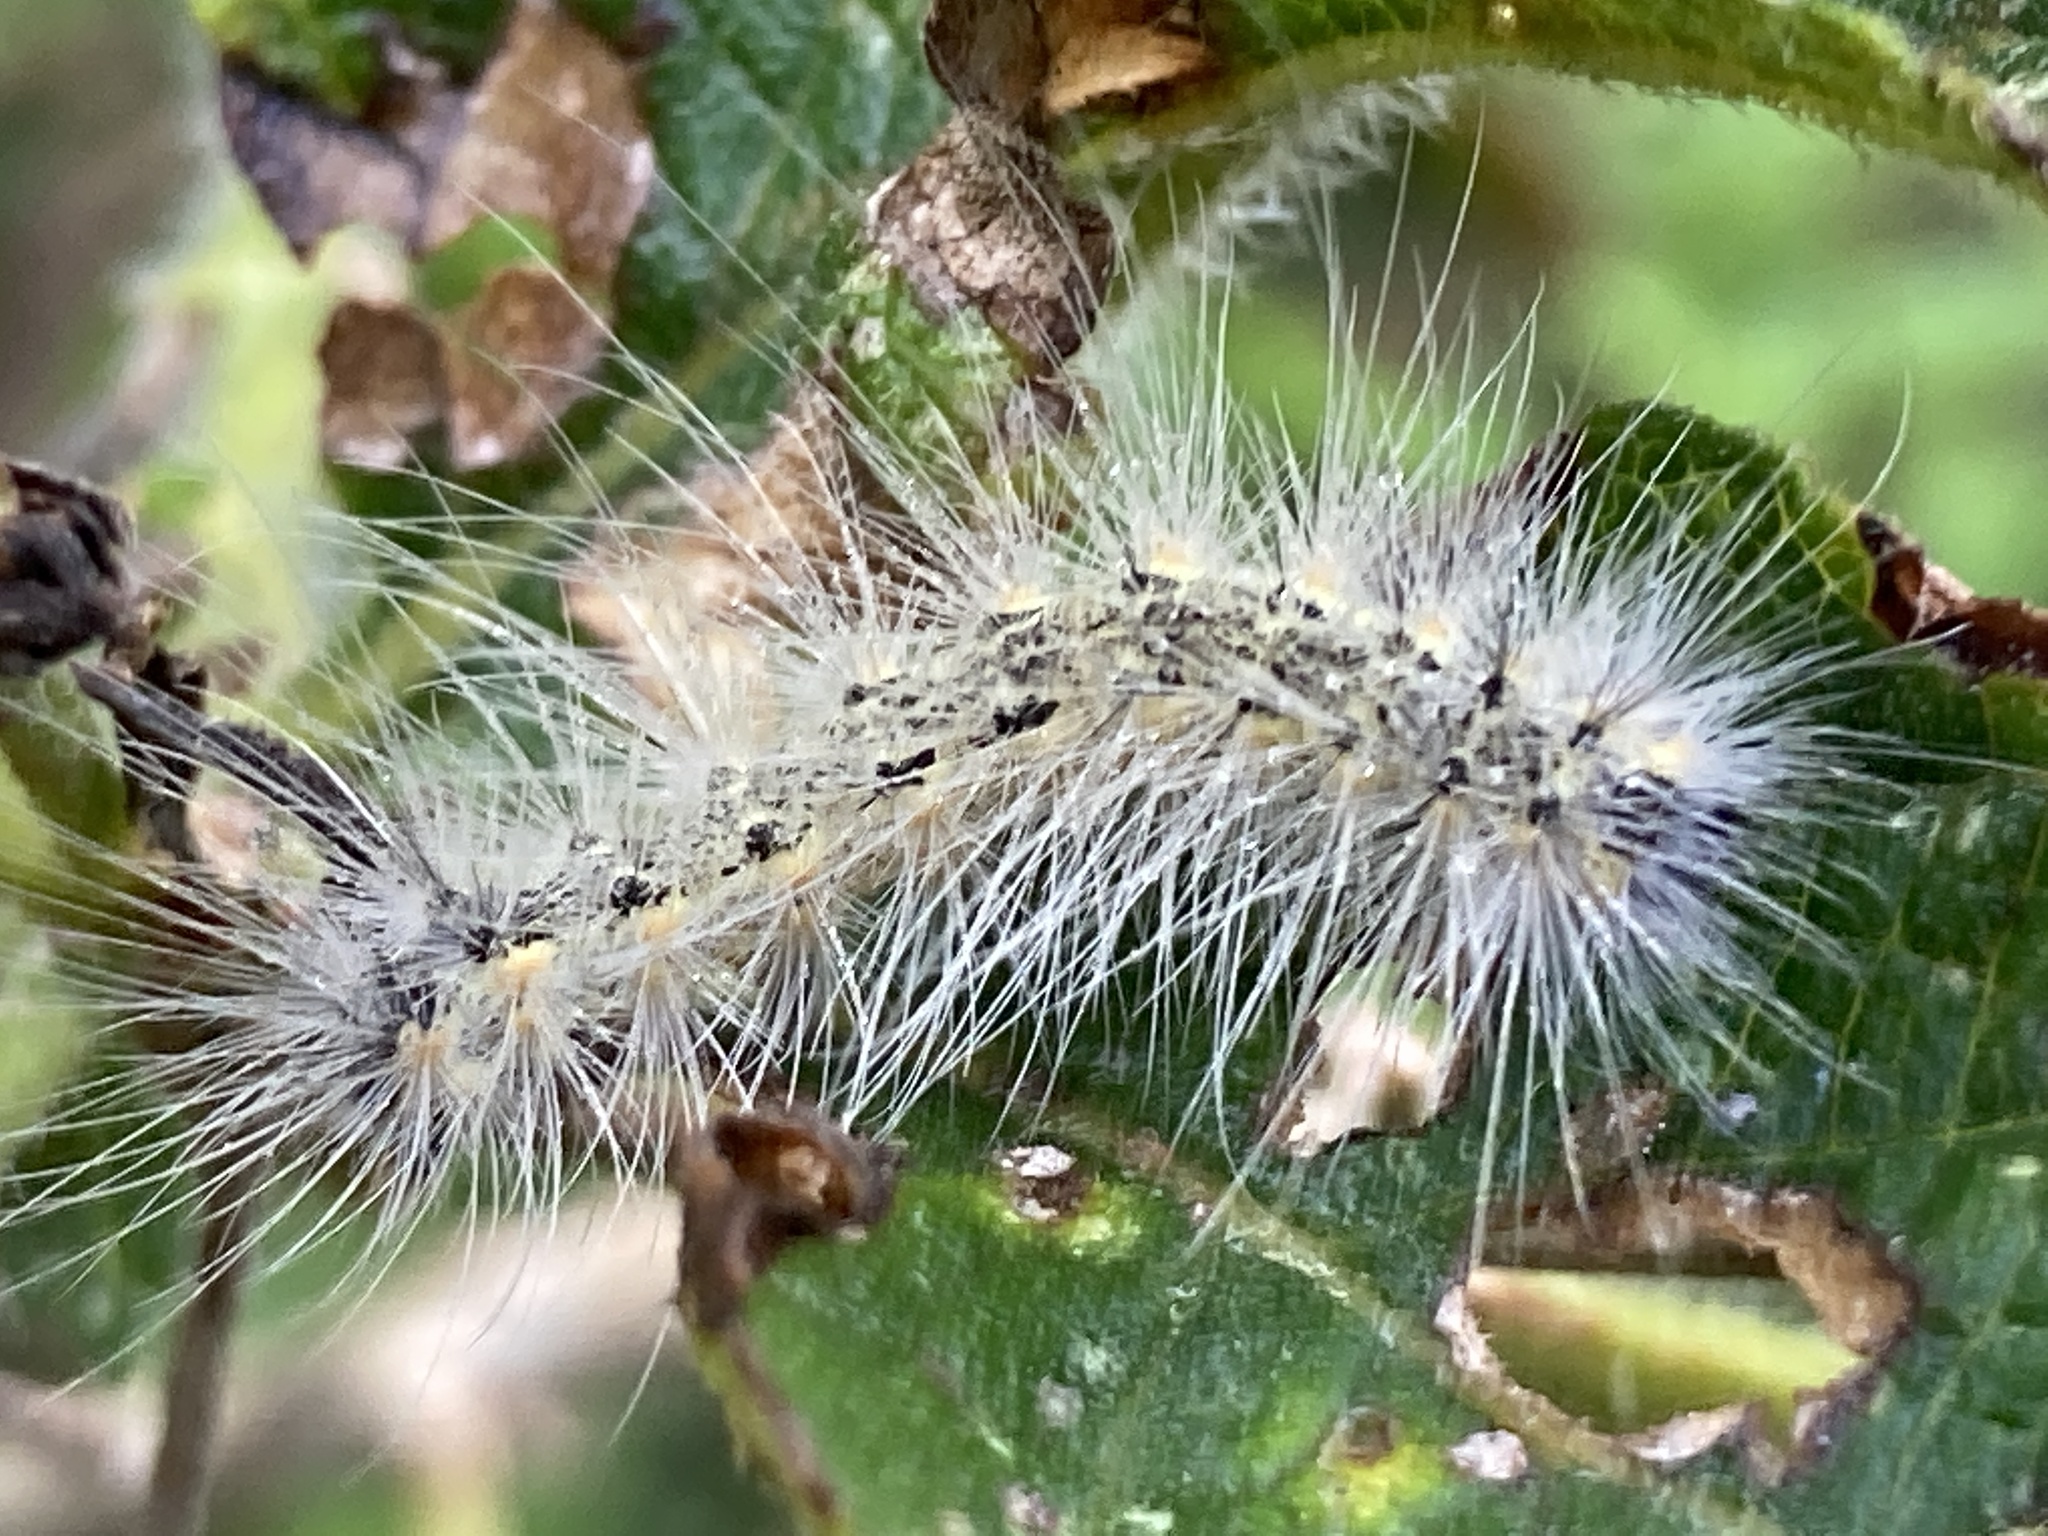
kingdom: Animalia
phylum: Arthropoda
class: Insecta
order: Lepidoptera
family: Erebidae
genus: Hyphantria
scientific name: Hyphantria cunea
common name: American white moth
